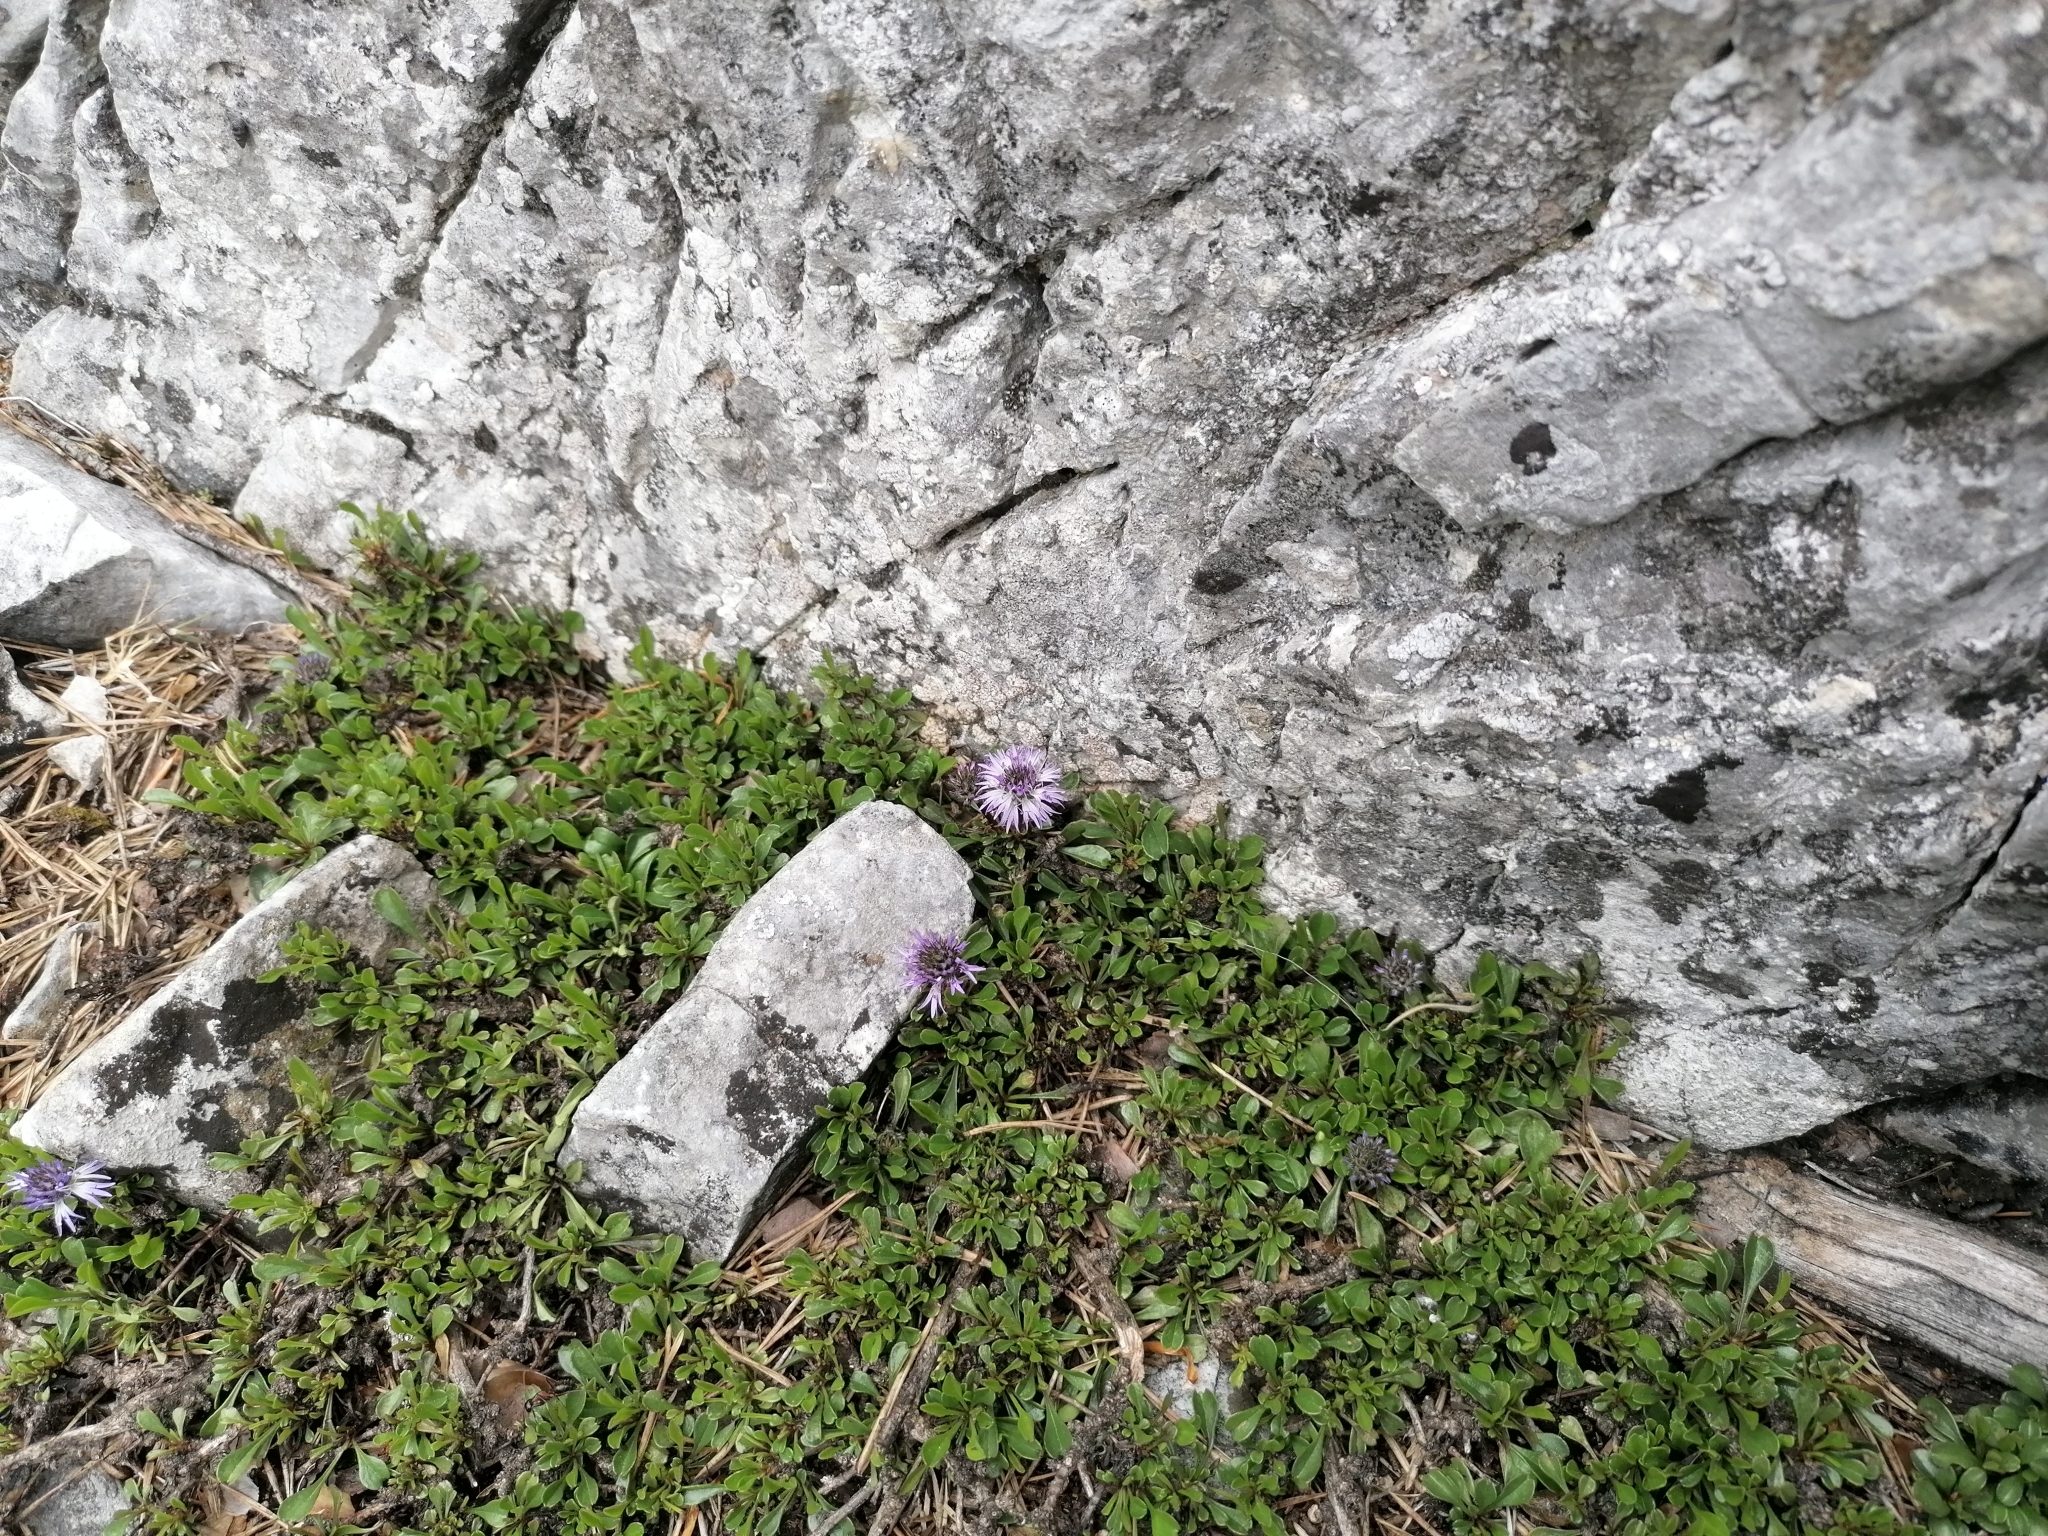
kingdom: Plantae
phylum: Tracheophyta
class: Magnoliopsida
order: Lamiales
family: Plantaginaceae
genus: Globularia
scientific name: Globularia cordifolia
